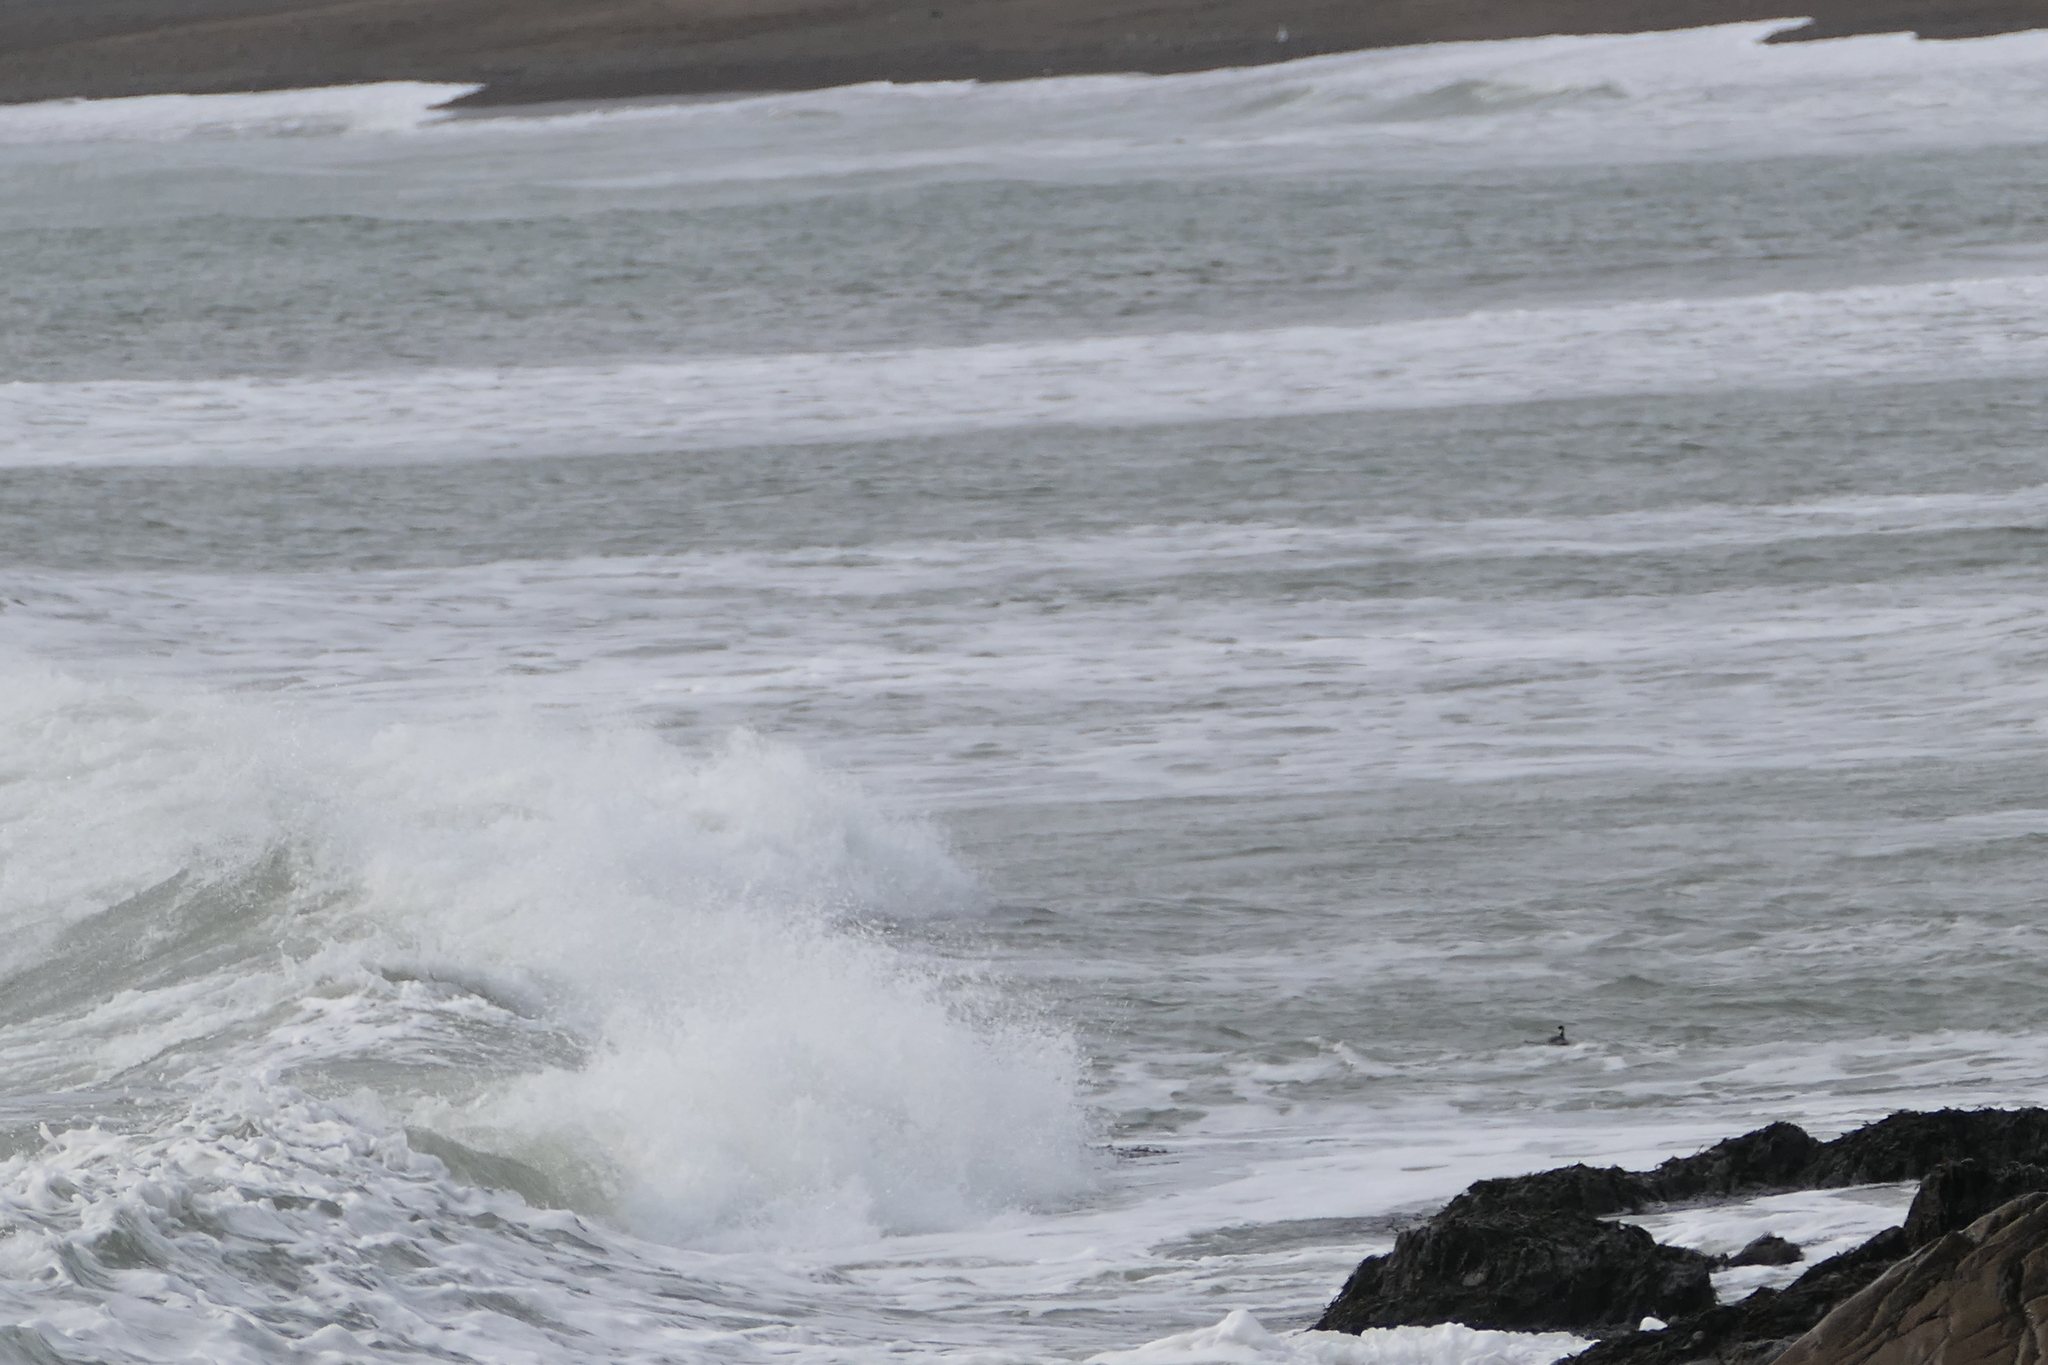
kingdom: Animalia
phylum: Chordata
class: Aves
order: Podicipediformes
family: Podicipedidae
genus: Podiceps
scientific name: Podiceps nigricollis
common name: Black-necked grebe
